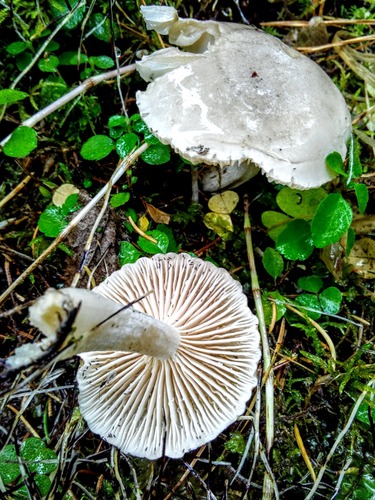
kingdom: Fungi
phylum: Basidiomycota
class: Agaricomycetes
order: Agaricales
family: Hygrophoraceae
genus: Hygrophorus
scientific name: Hygrophorus
